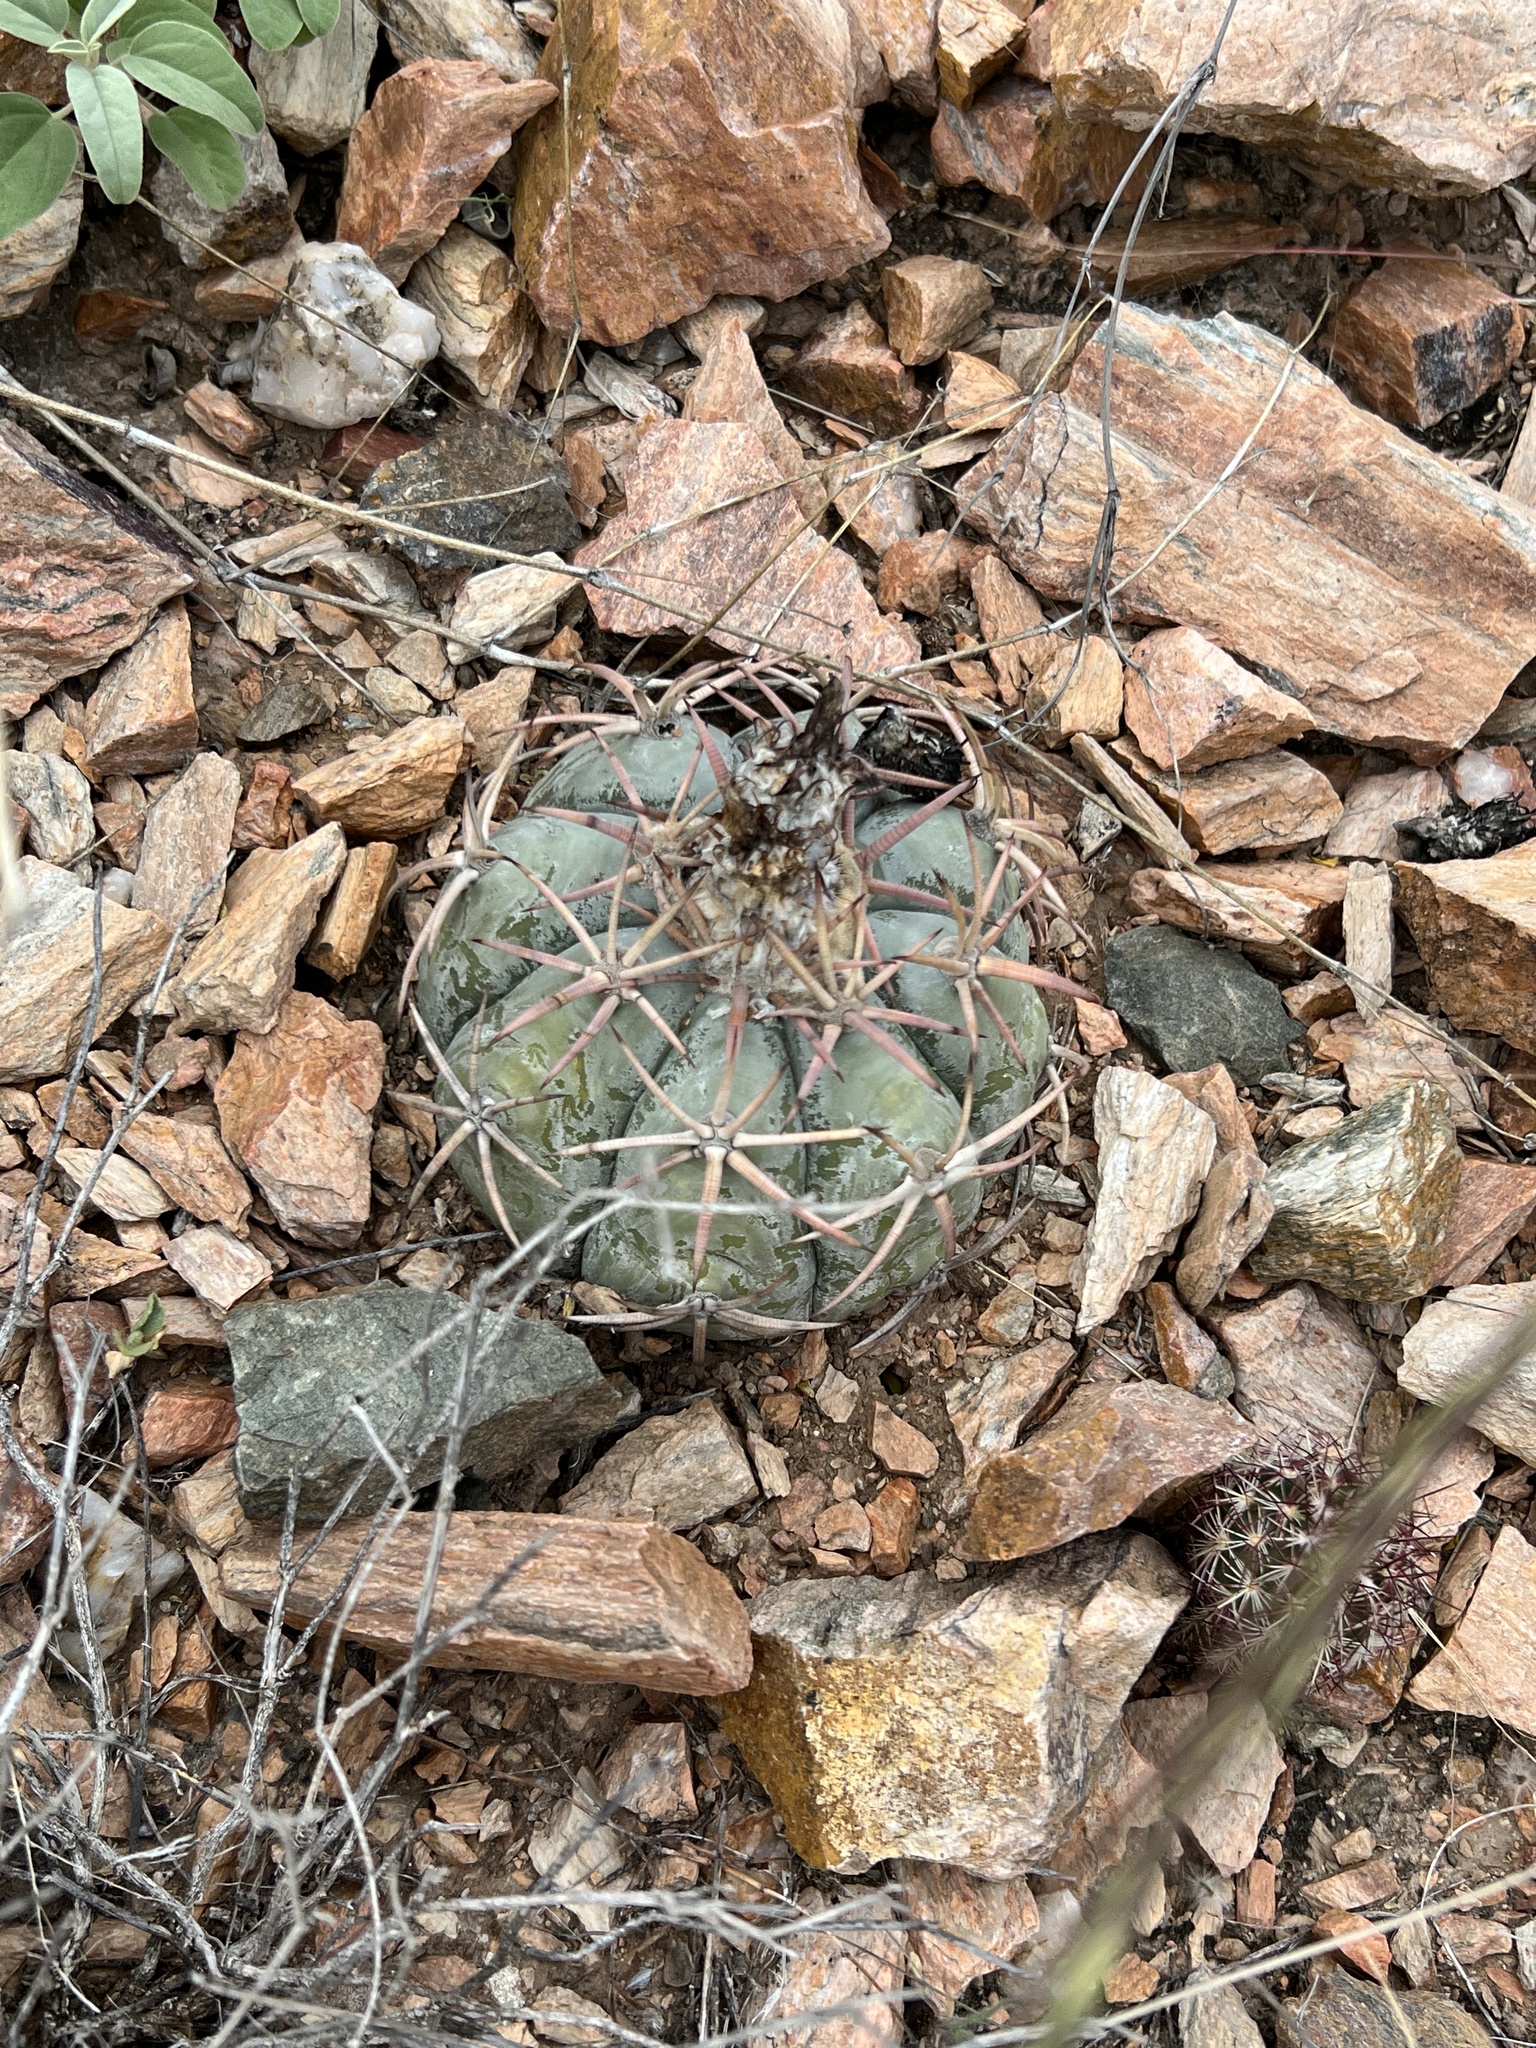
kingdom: Plantae
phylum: Tracheophyta
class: Magnoliopsida
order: Caryophyllales
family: Cactaceae
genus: Echinocactus
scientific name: Echinocactus horizonthalonius
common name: Devilshead
